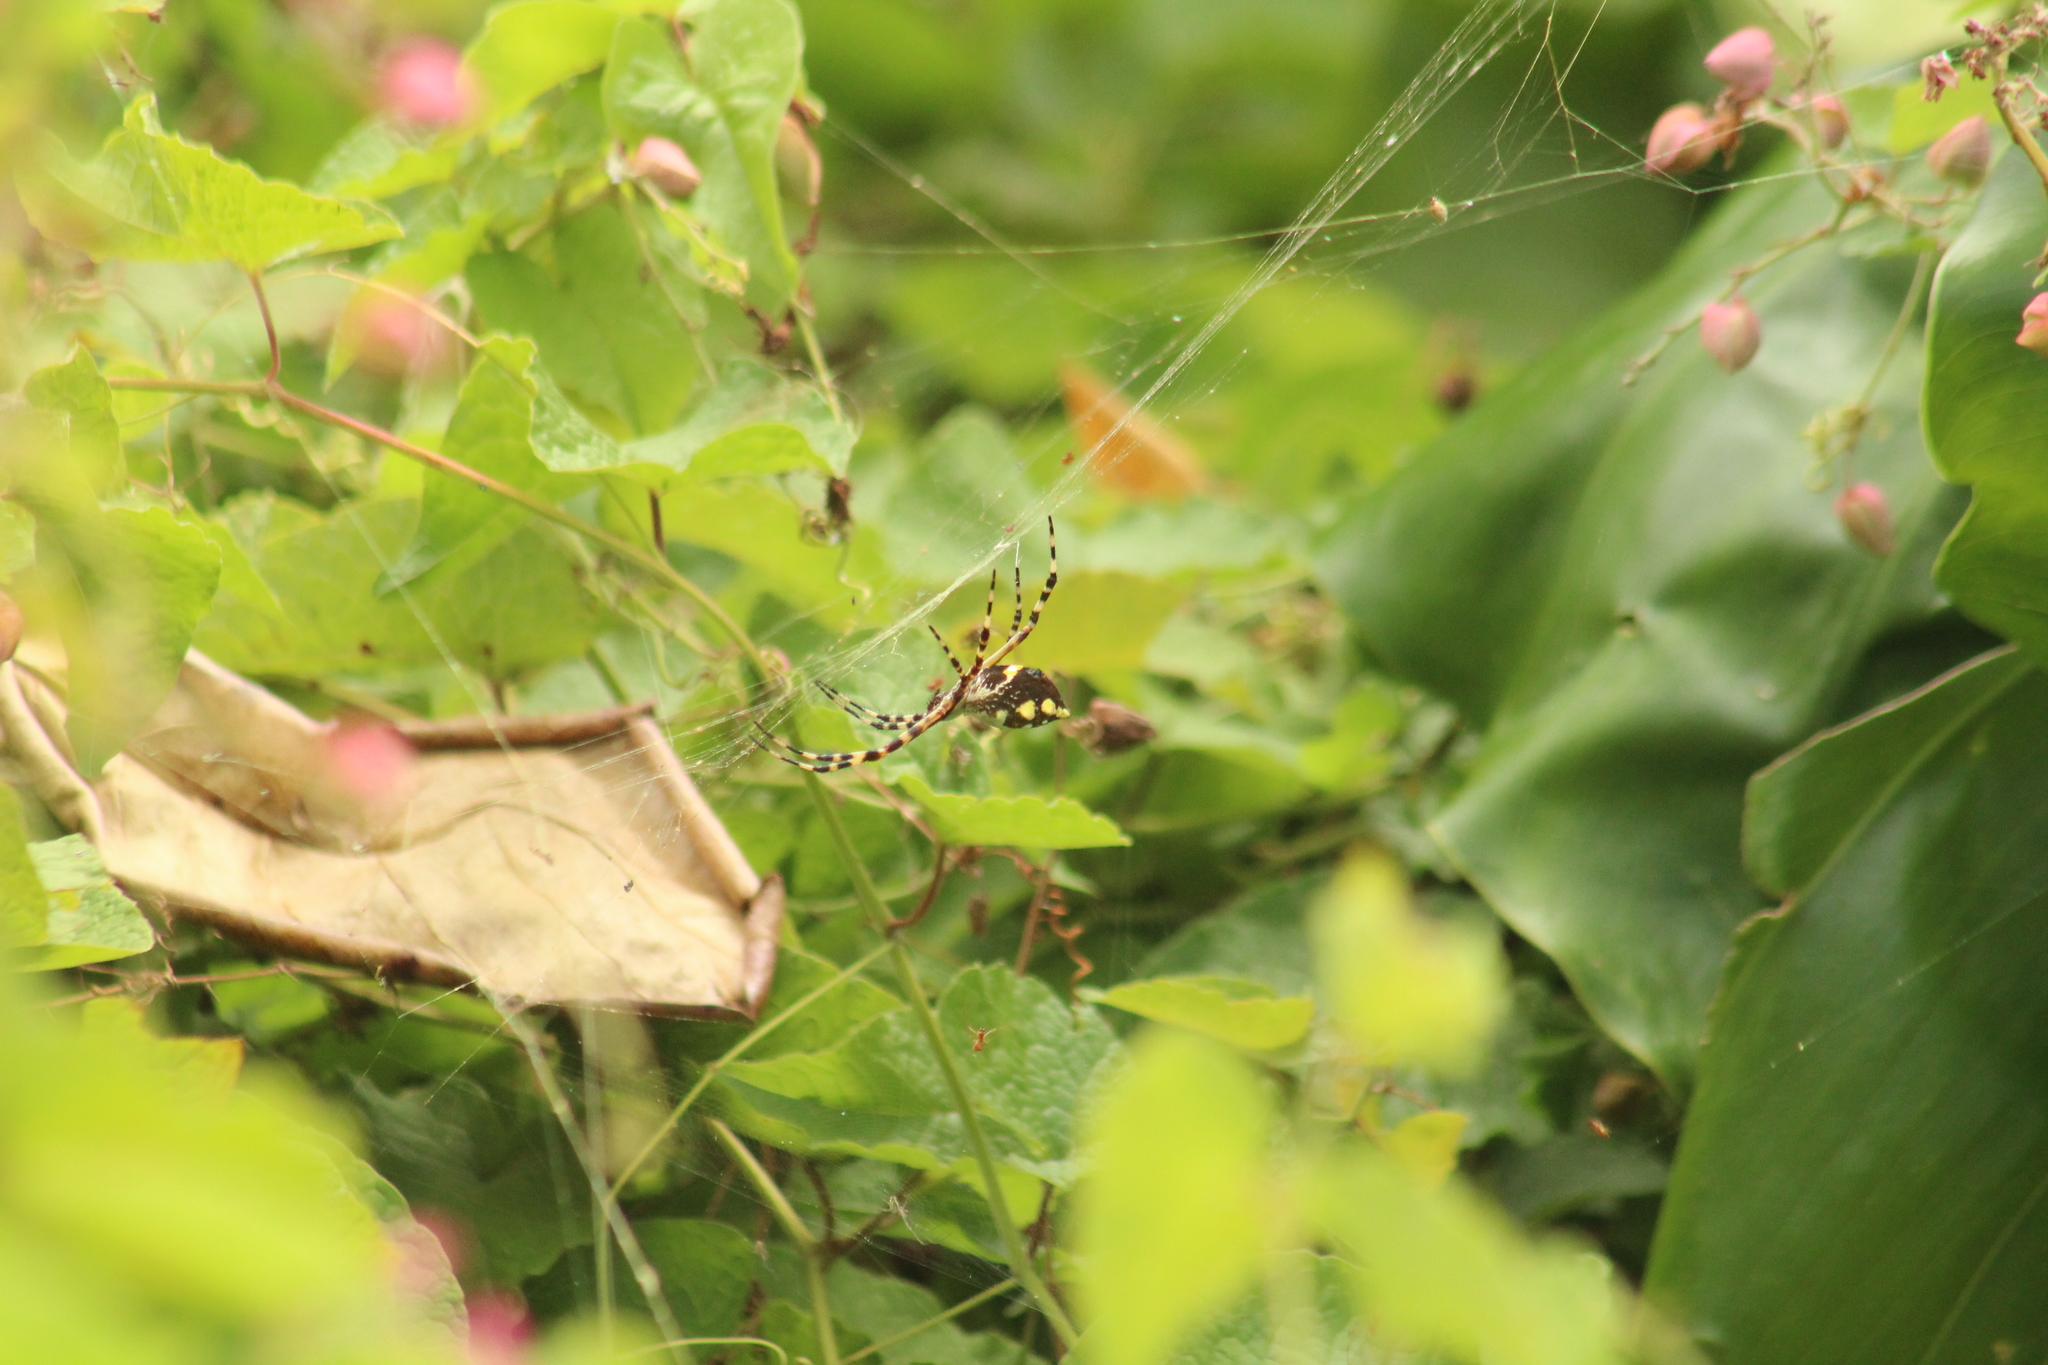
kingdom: Animalia
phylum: Arthropoda
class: Arachnida
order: Araneae
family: Araneidae
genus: Argiope
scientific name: Argiope argentata
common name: Orb weavers
